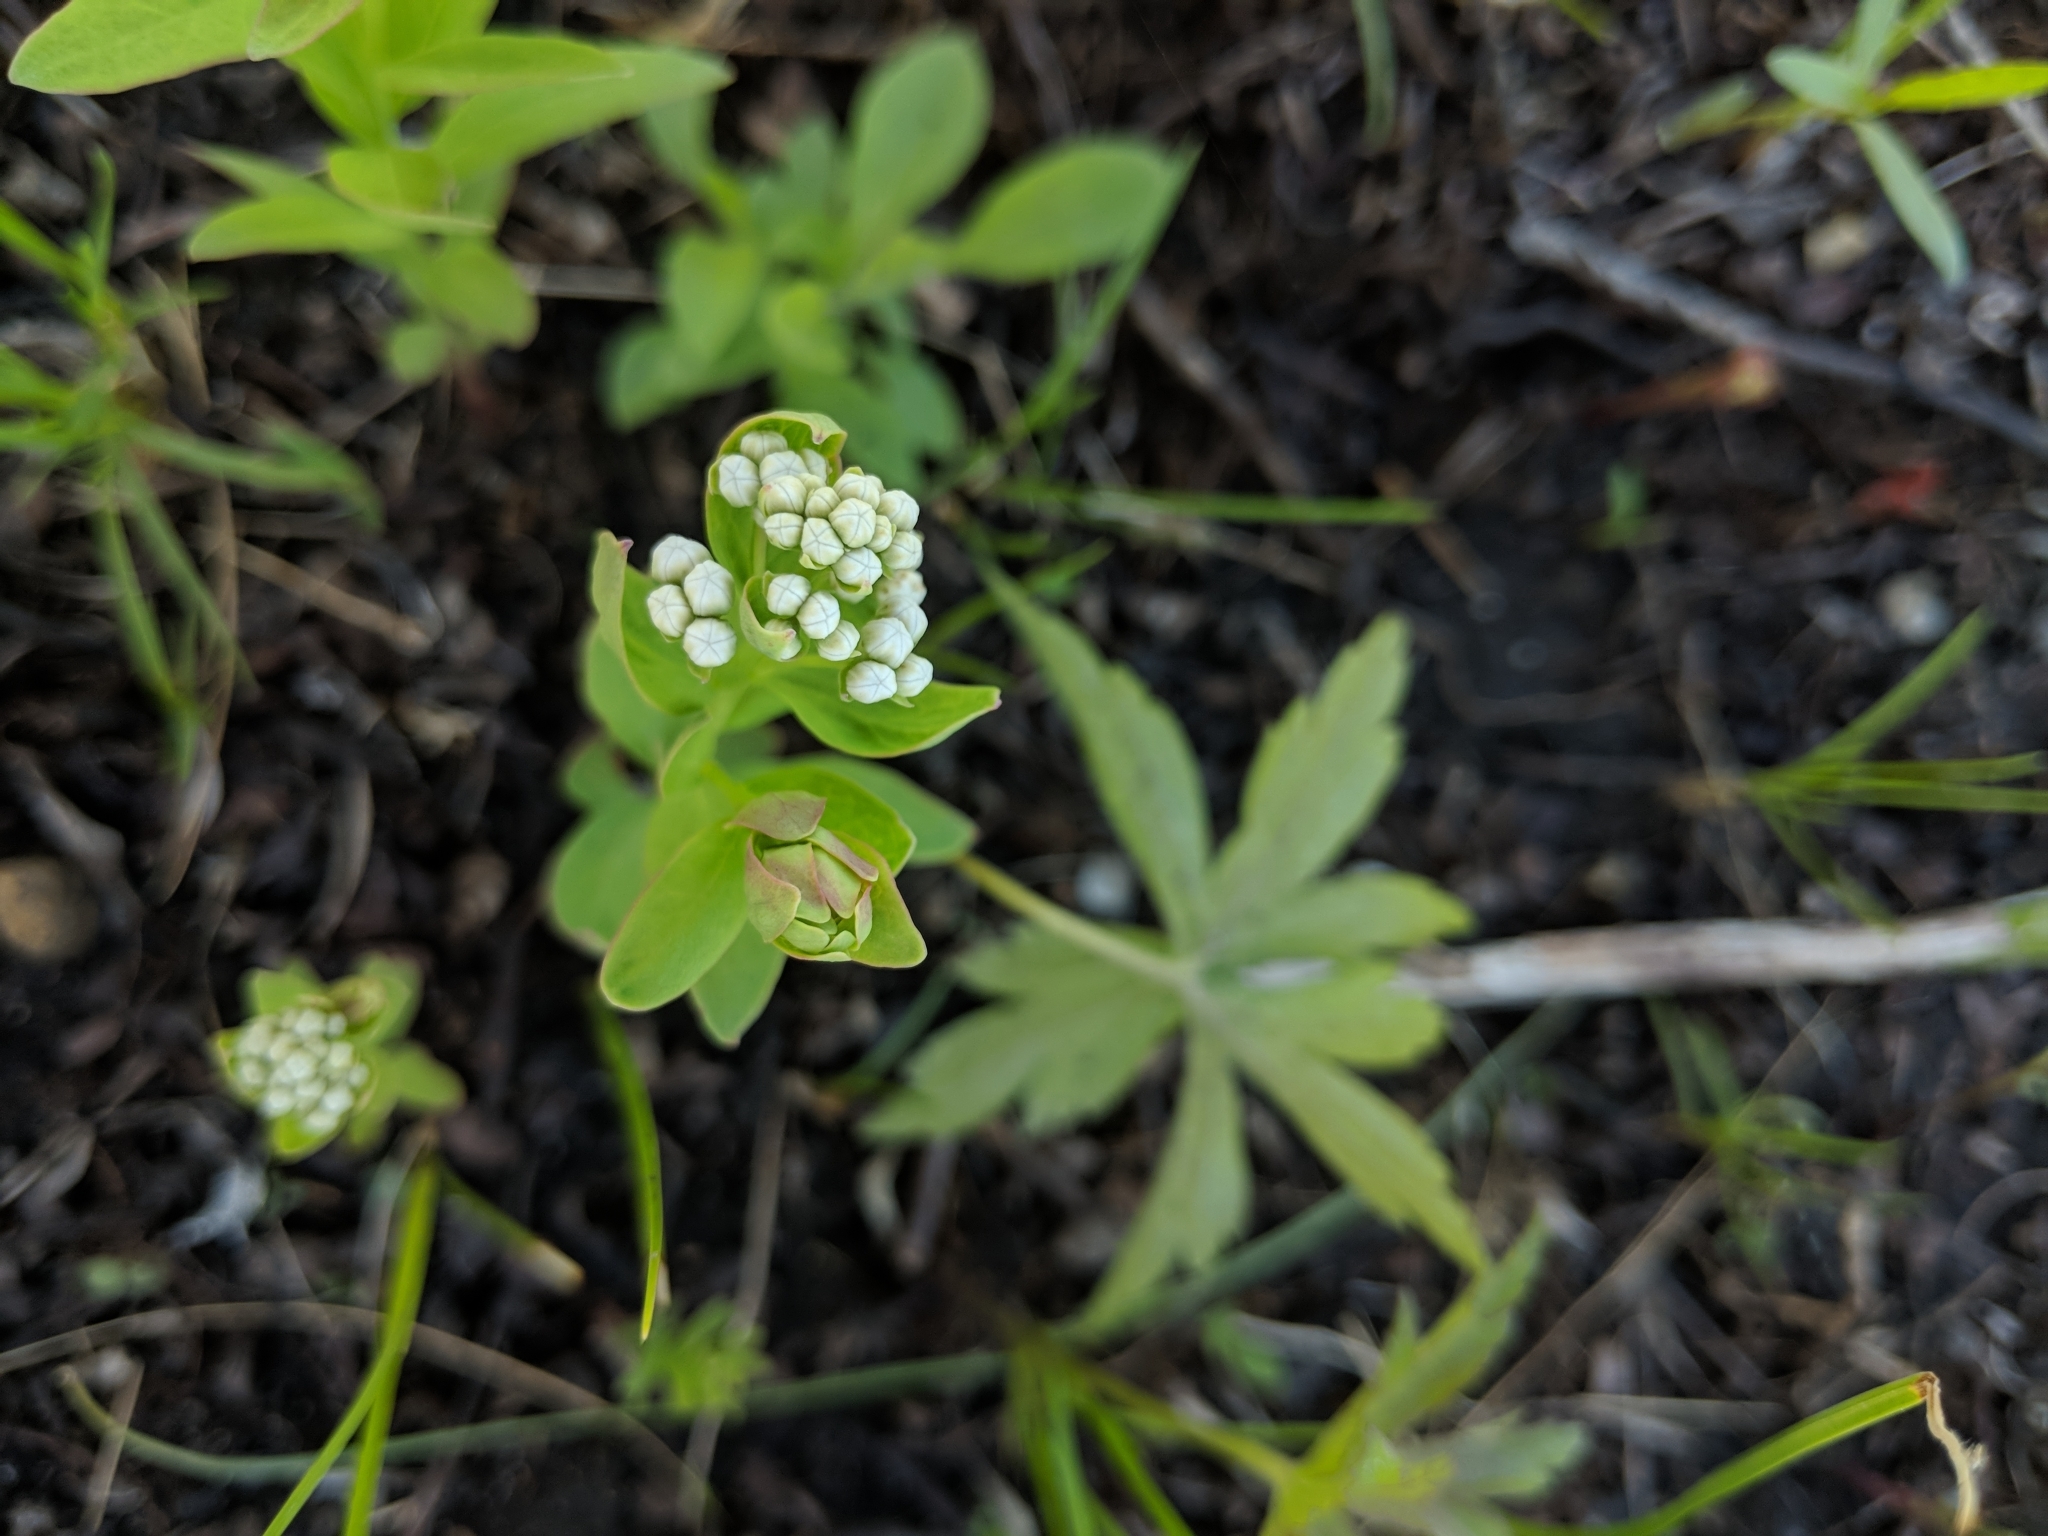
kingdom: Plantae
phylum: Tracheophyta
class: Magnoliopsida
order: Santalales
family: Comandraceae
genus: Comandra
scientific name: Comandra umbellata
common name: Bastard toadflax
